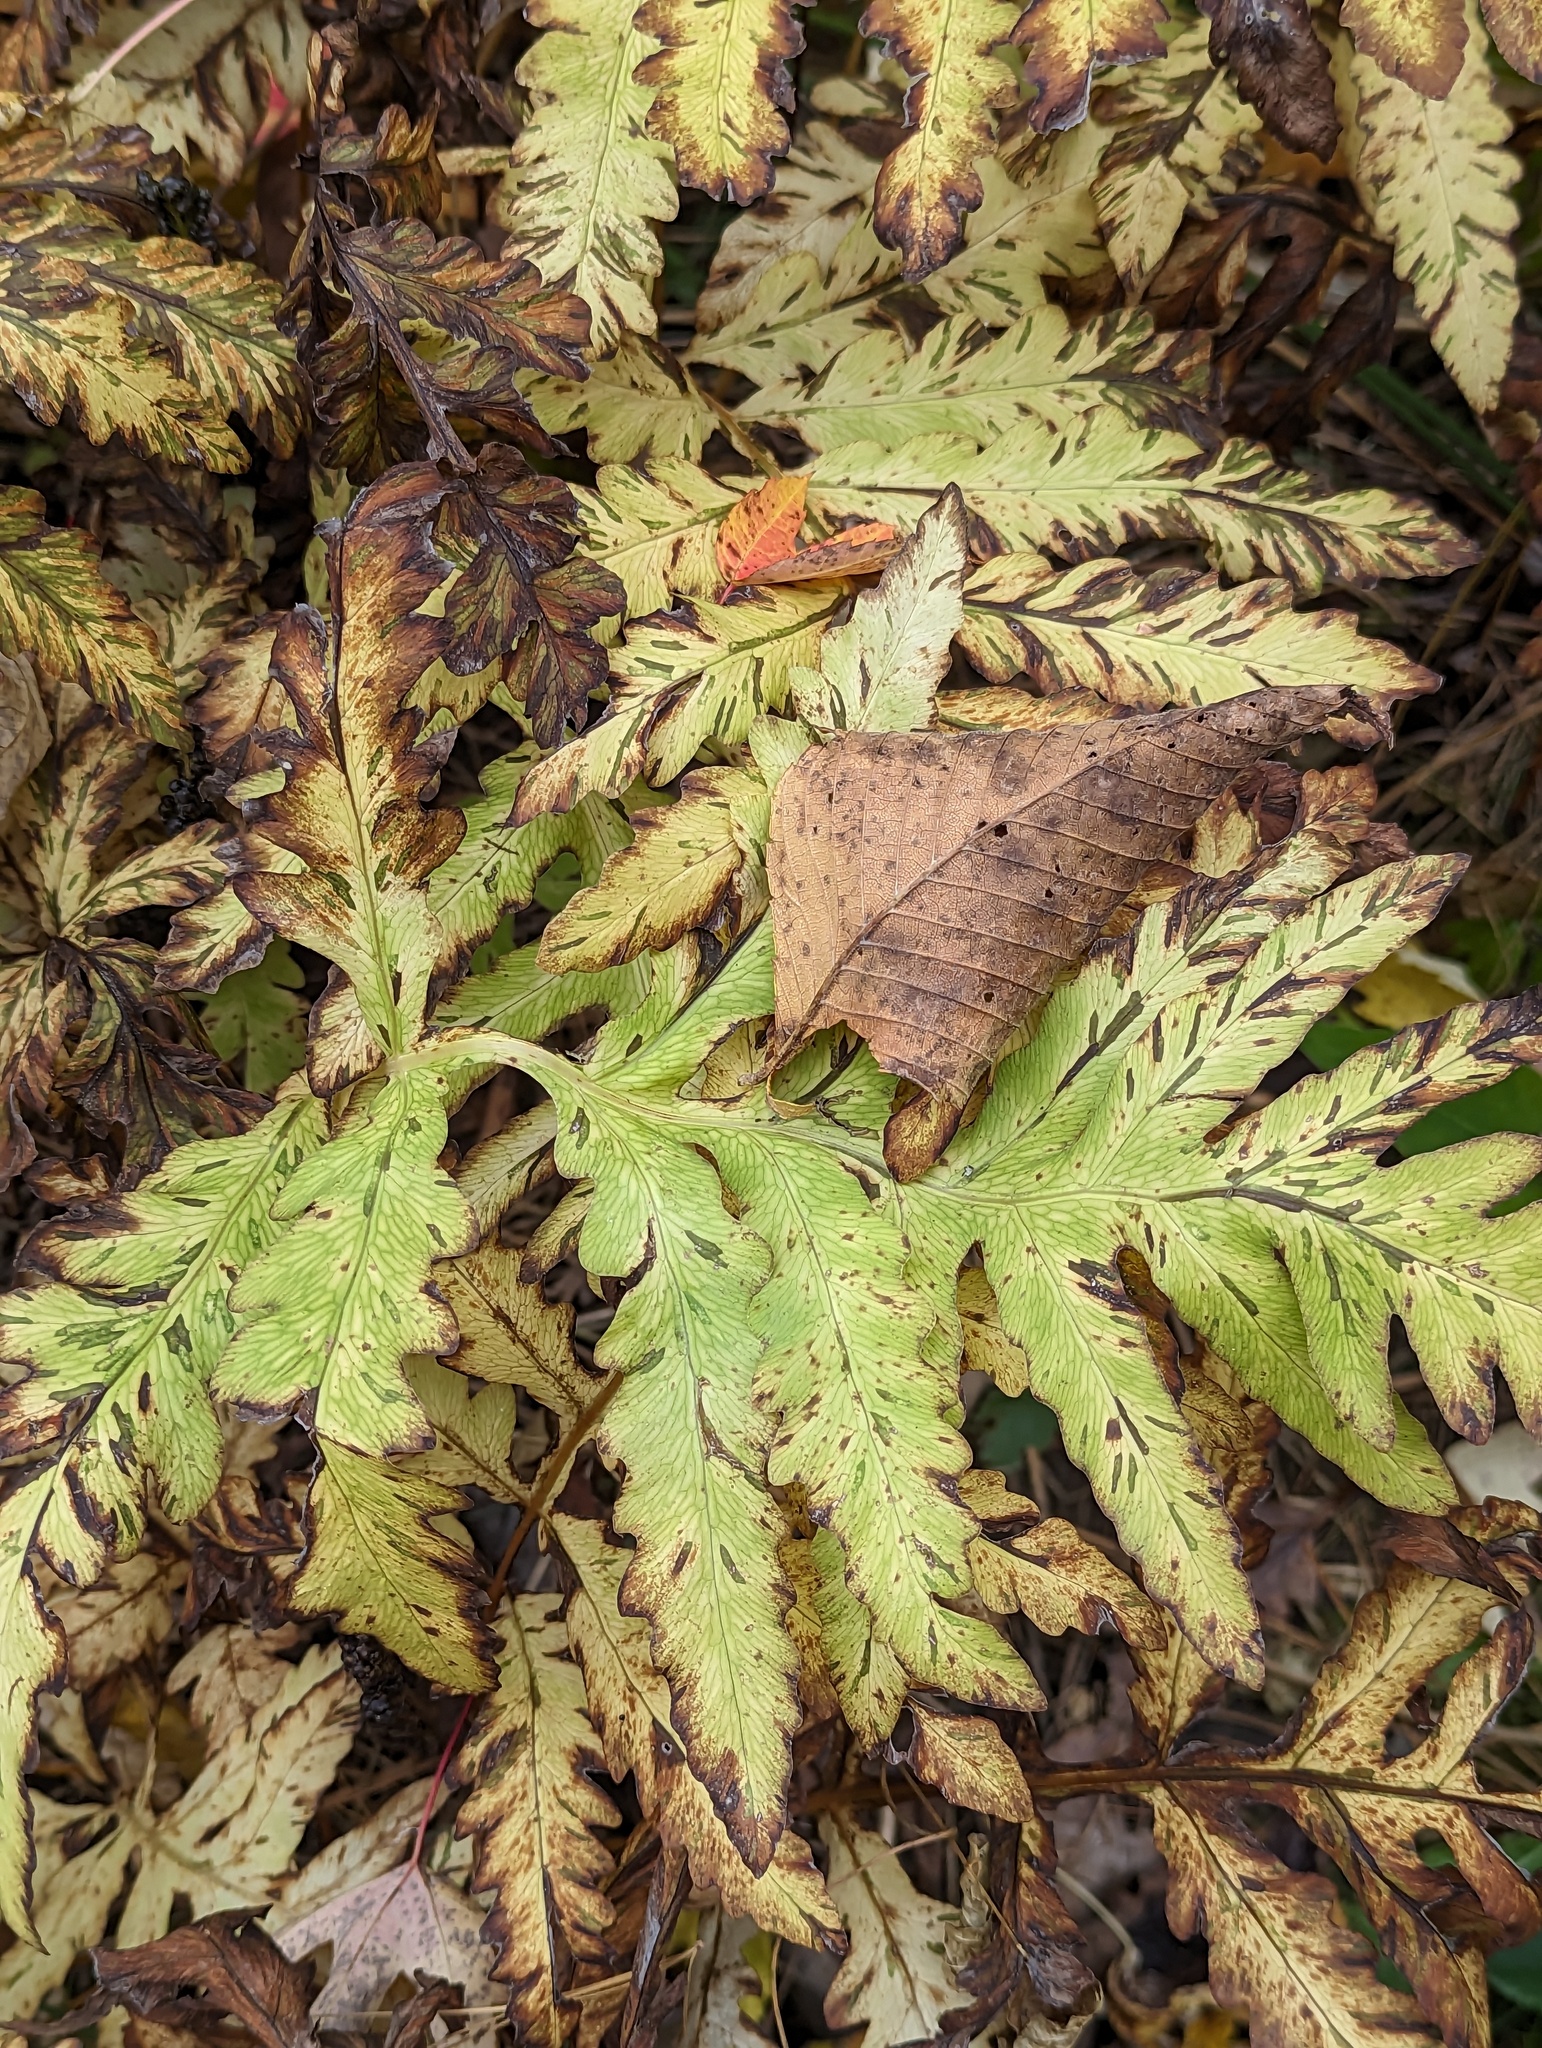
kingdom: Plantae
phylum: Tracheophyta
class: Polypodiopsida
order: Polypodiales
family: Onocleaceae
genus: Onoclea
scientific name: Onoclea sensibilis
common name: Sensitive fern
